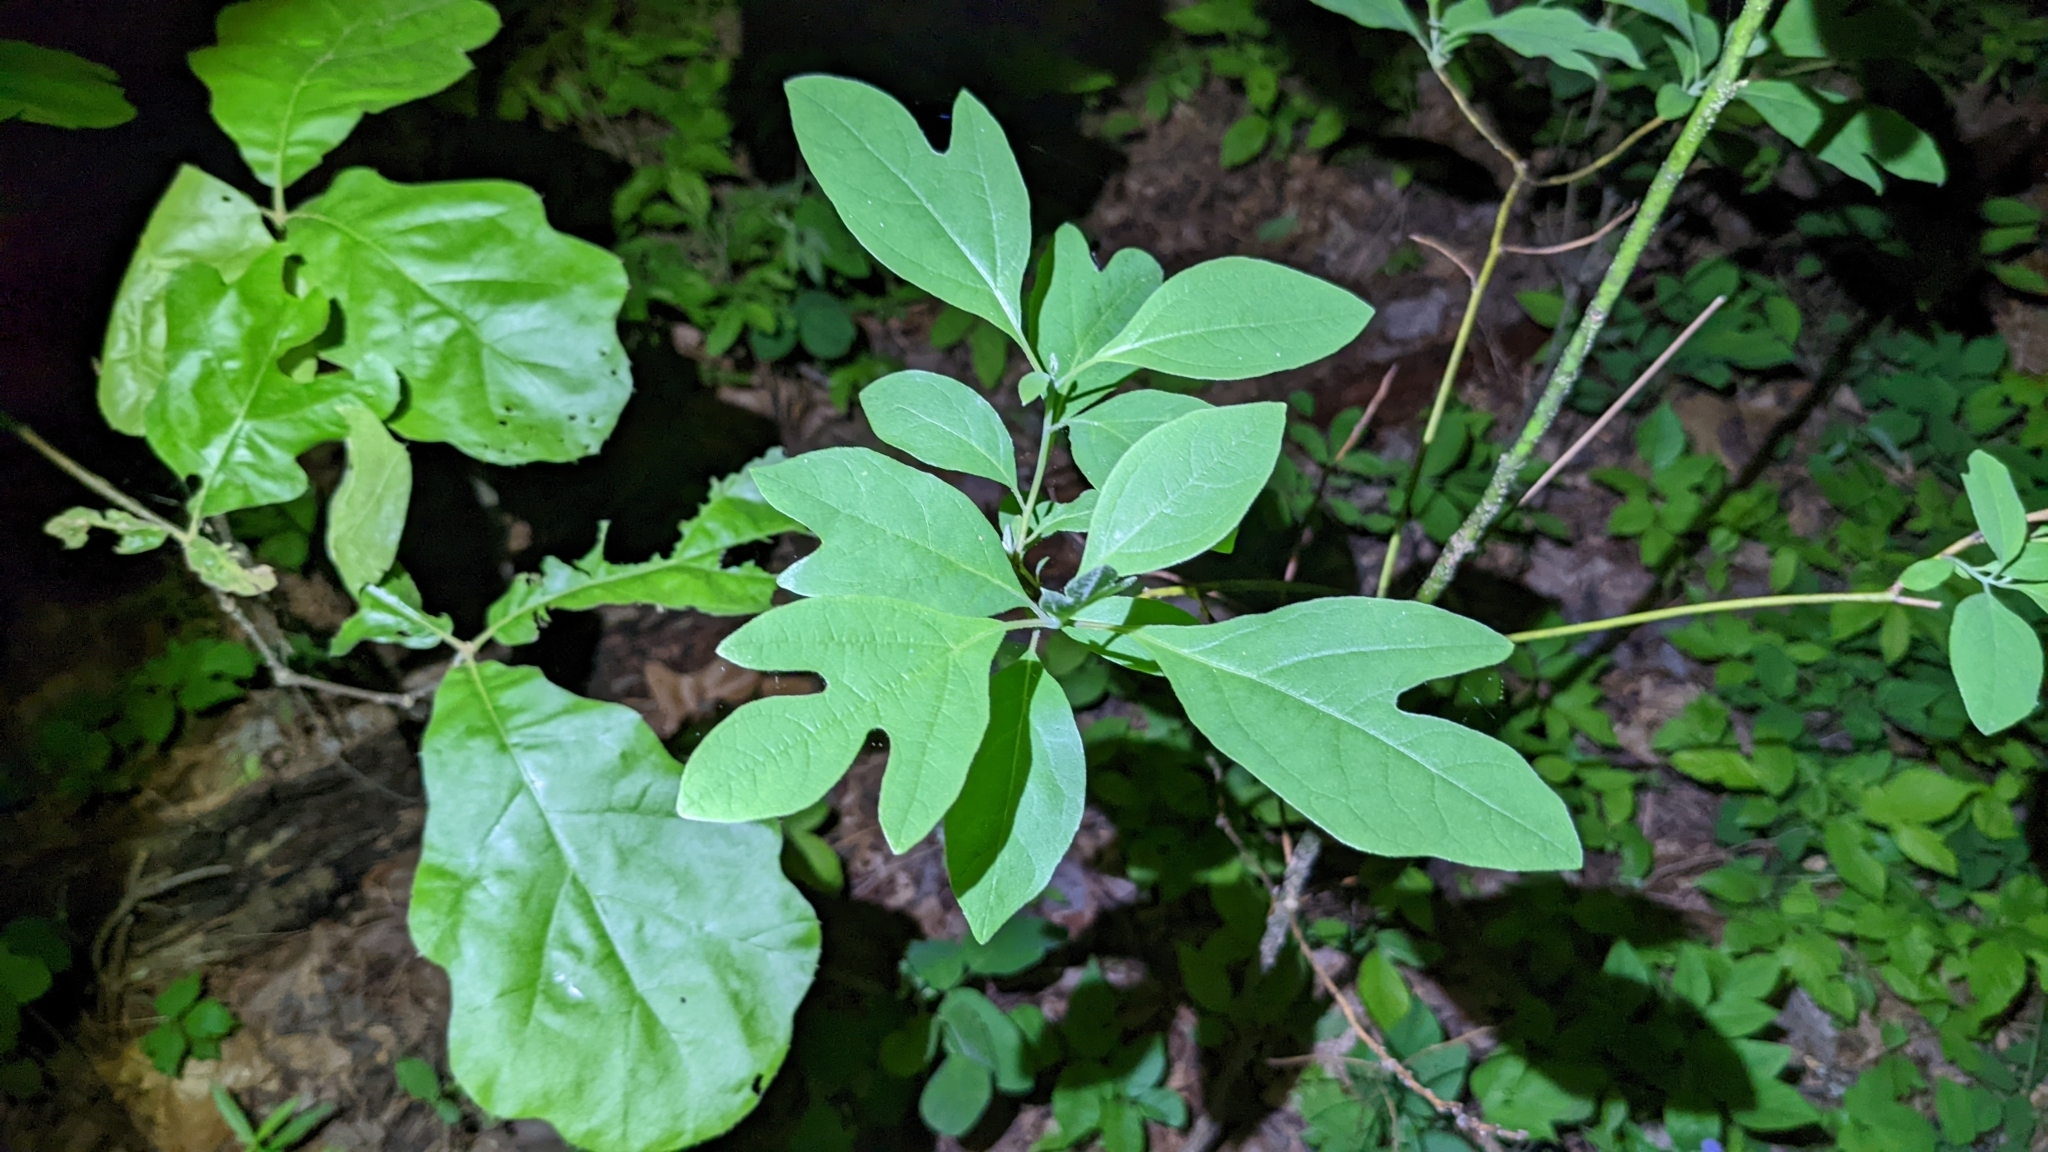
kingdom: Plantae
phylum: Tracheophyta
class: Magnoliopsida
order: Laurales
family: Lauraceae
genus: Sassafras
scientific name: Sassafras albidum
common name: Sassafras
